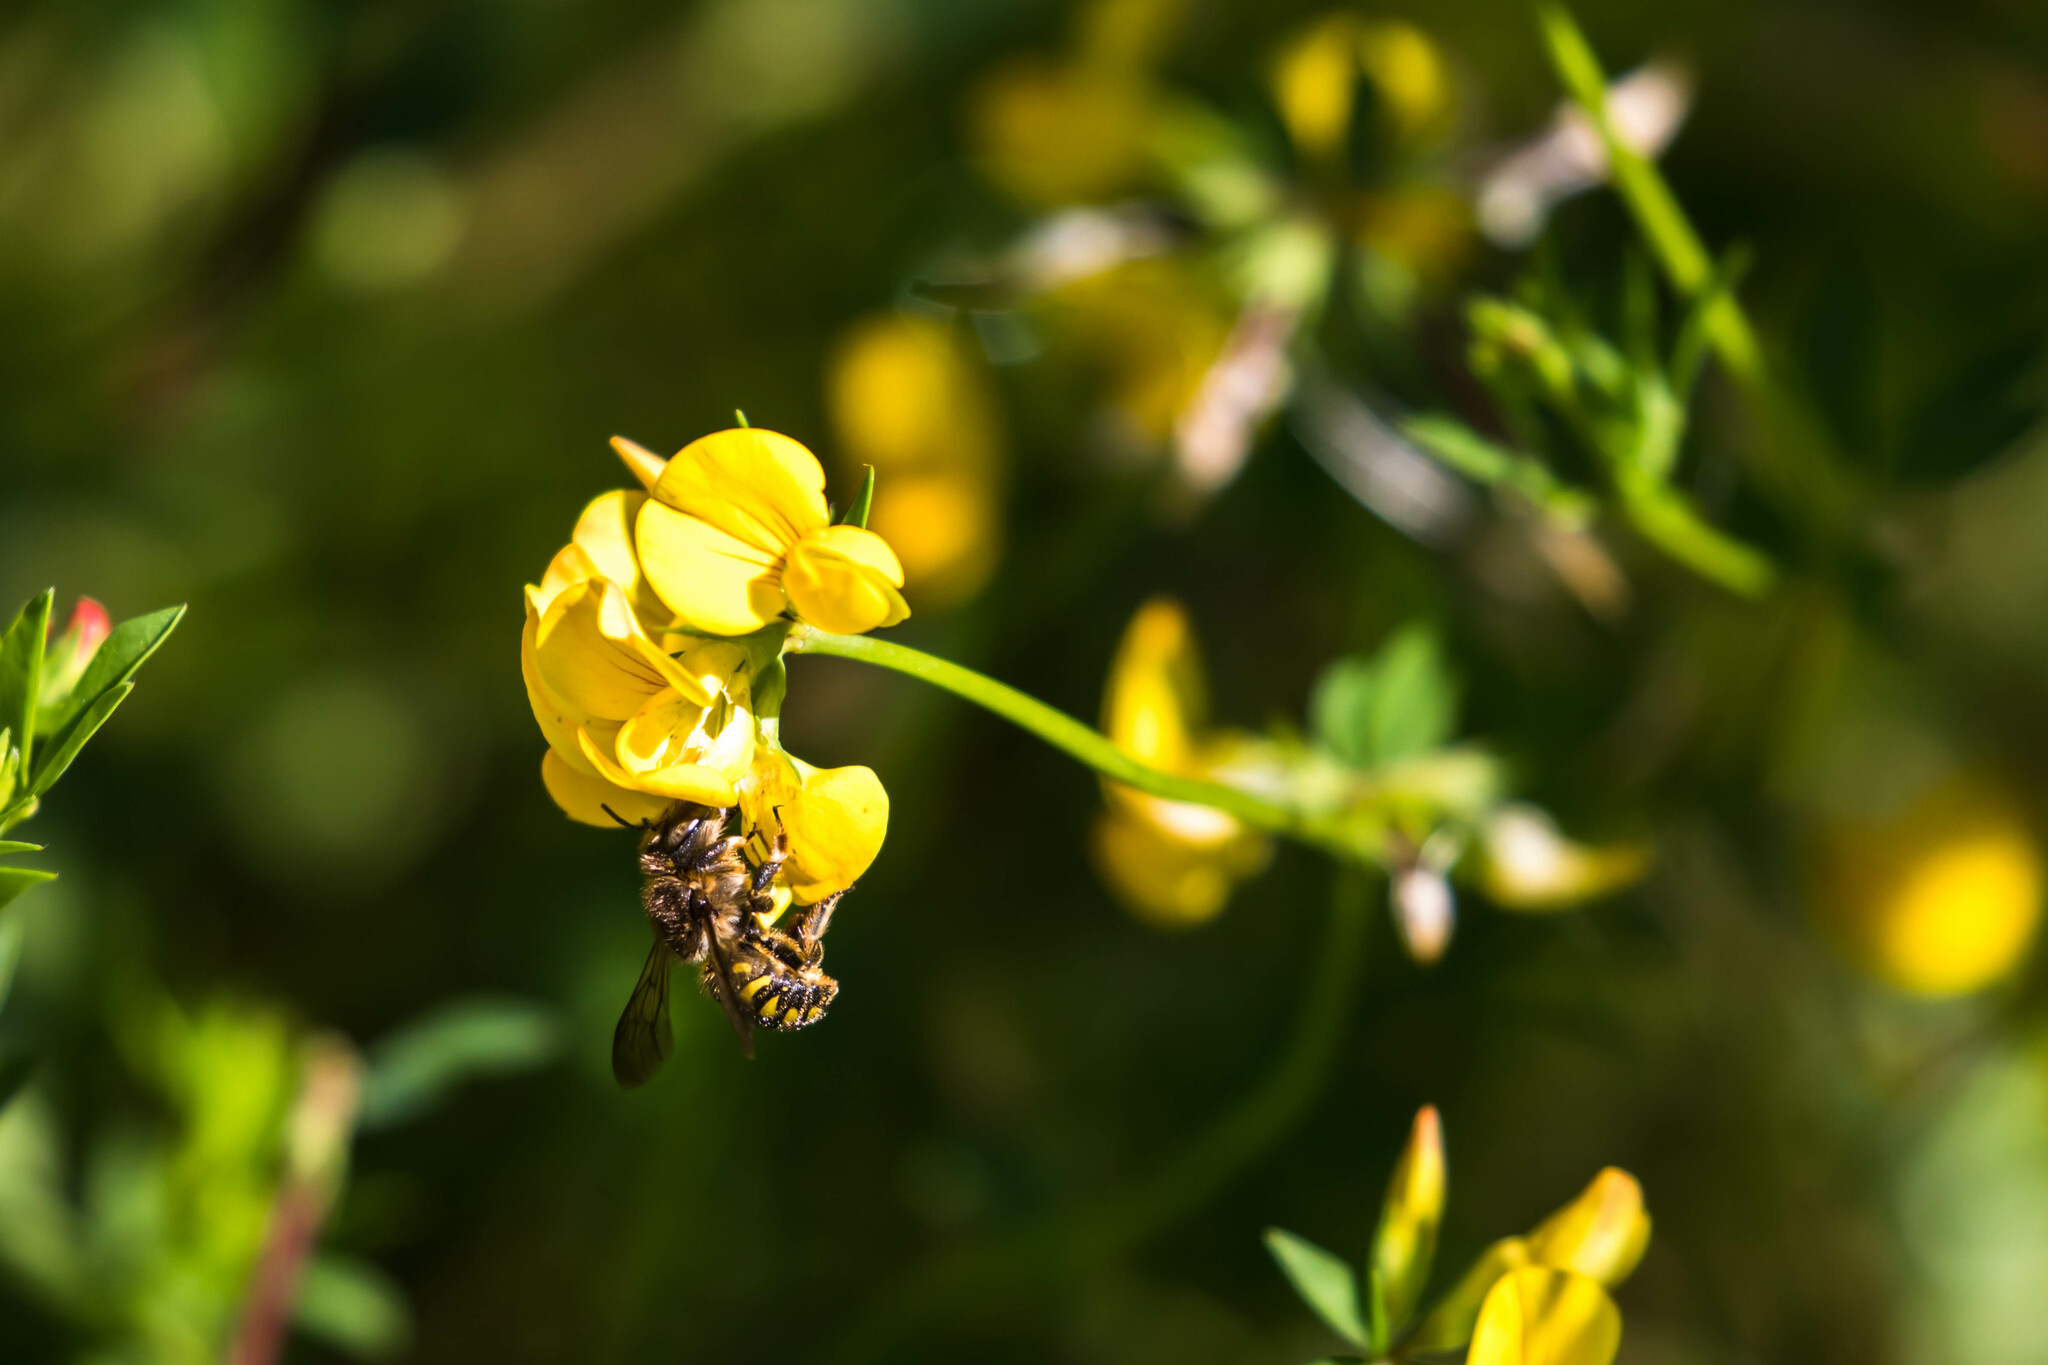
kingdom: Animalia
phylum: Arthropoda
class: Insecta
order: Hymenoptera
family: Megachilidae
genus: Anthidium
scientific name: Anthidium septemspinosum
